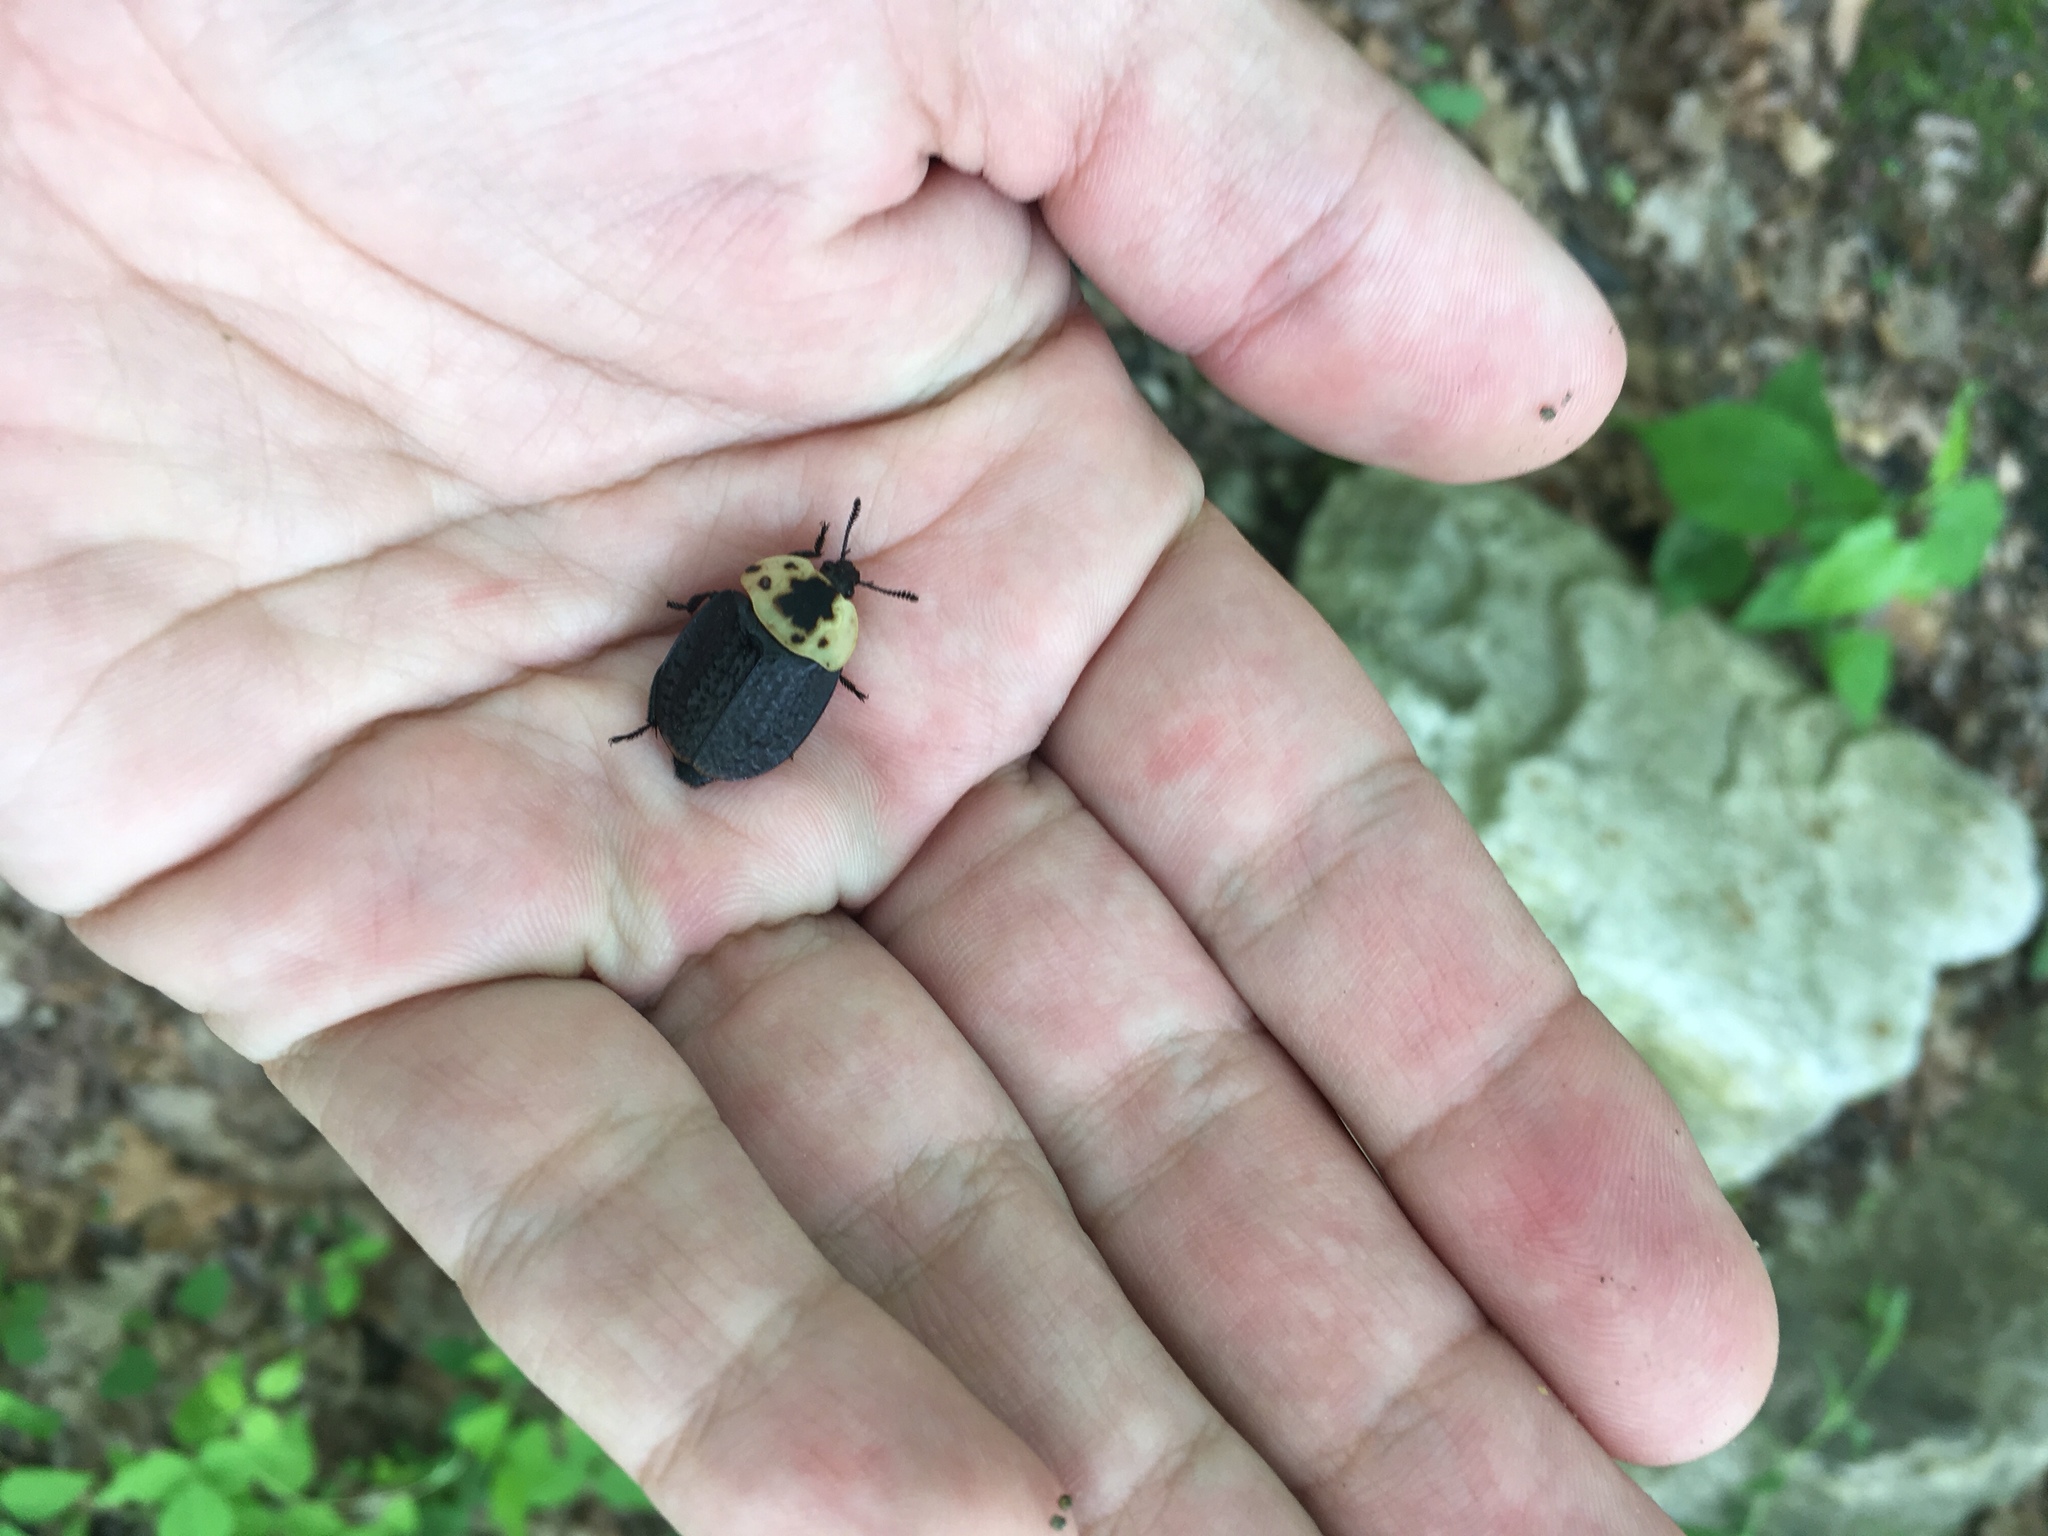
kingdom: Animalia
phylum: Arthropoda
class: Insecta
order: Coleoptera
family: Staphylinidae
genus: Necrophila
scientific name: Necrophila americana
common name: American carrion beetle
